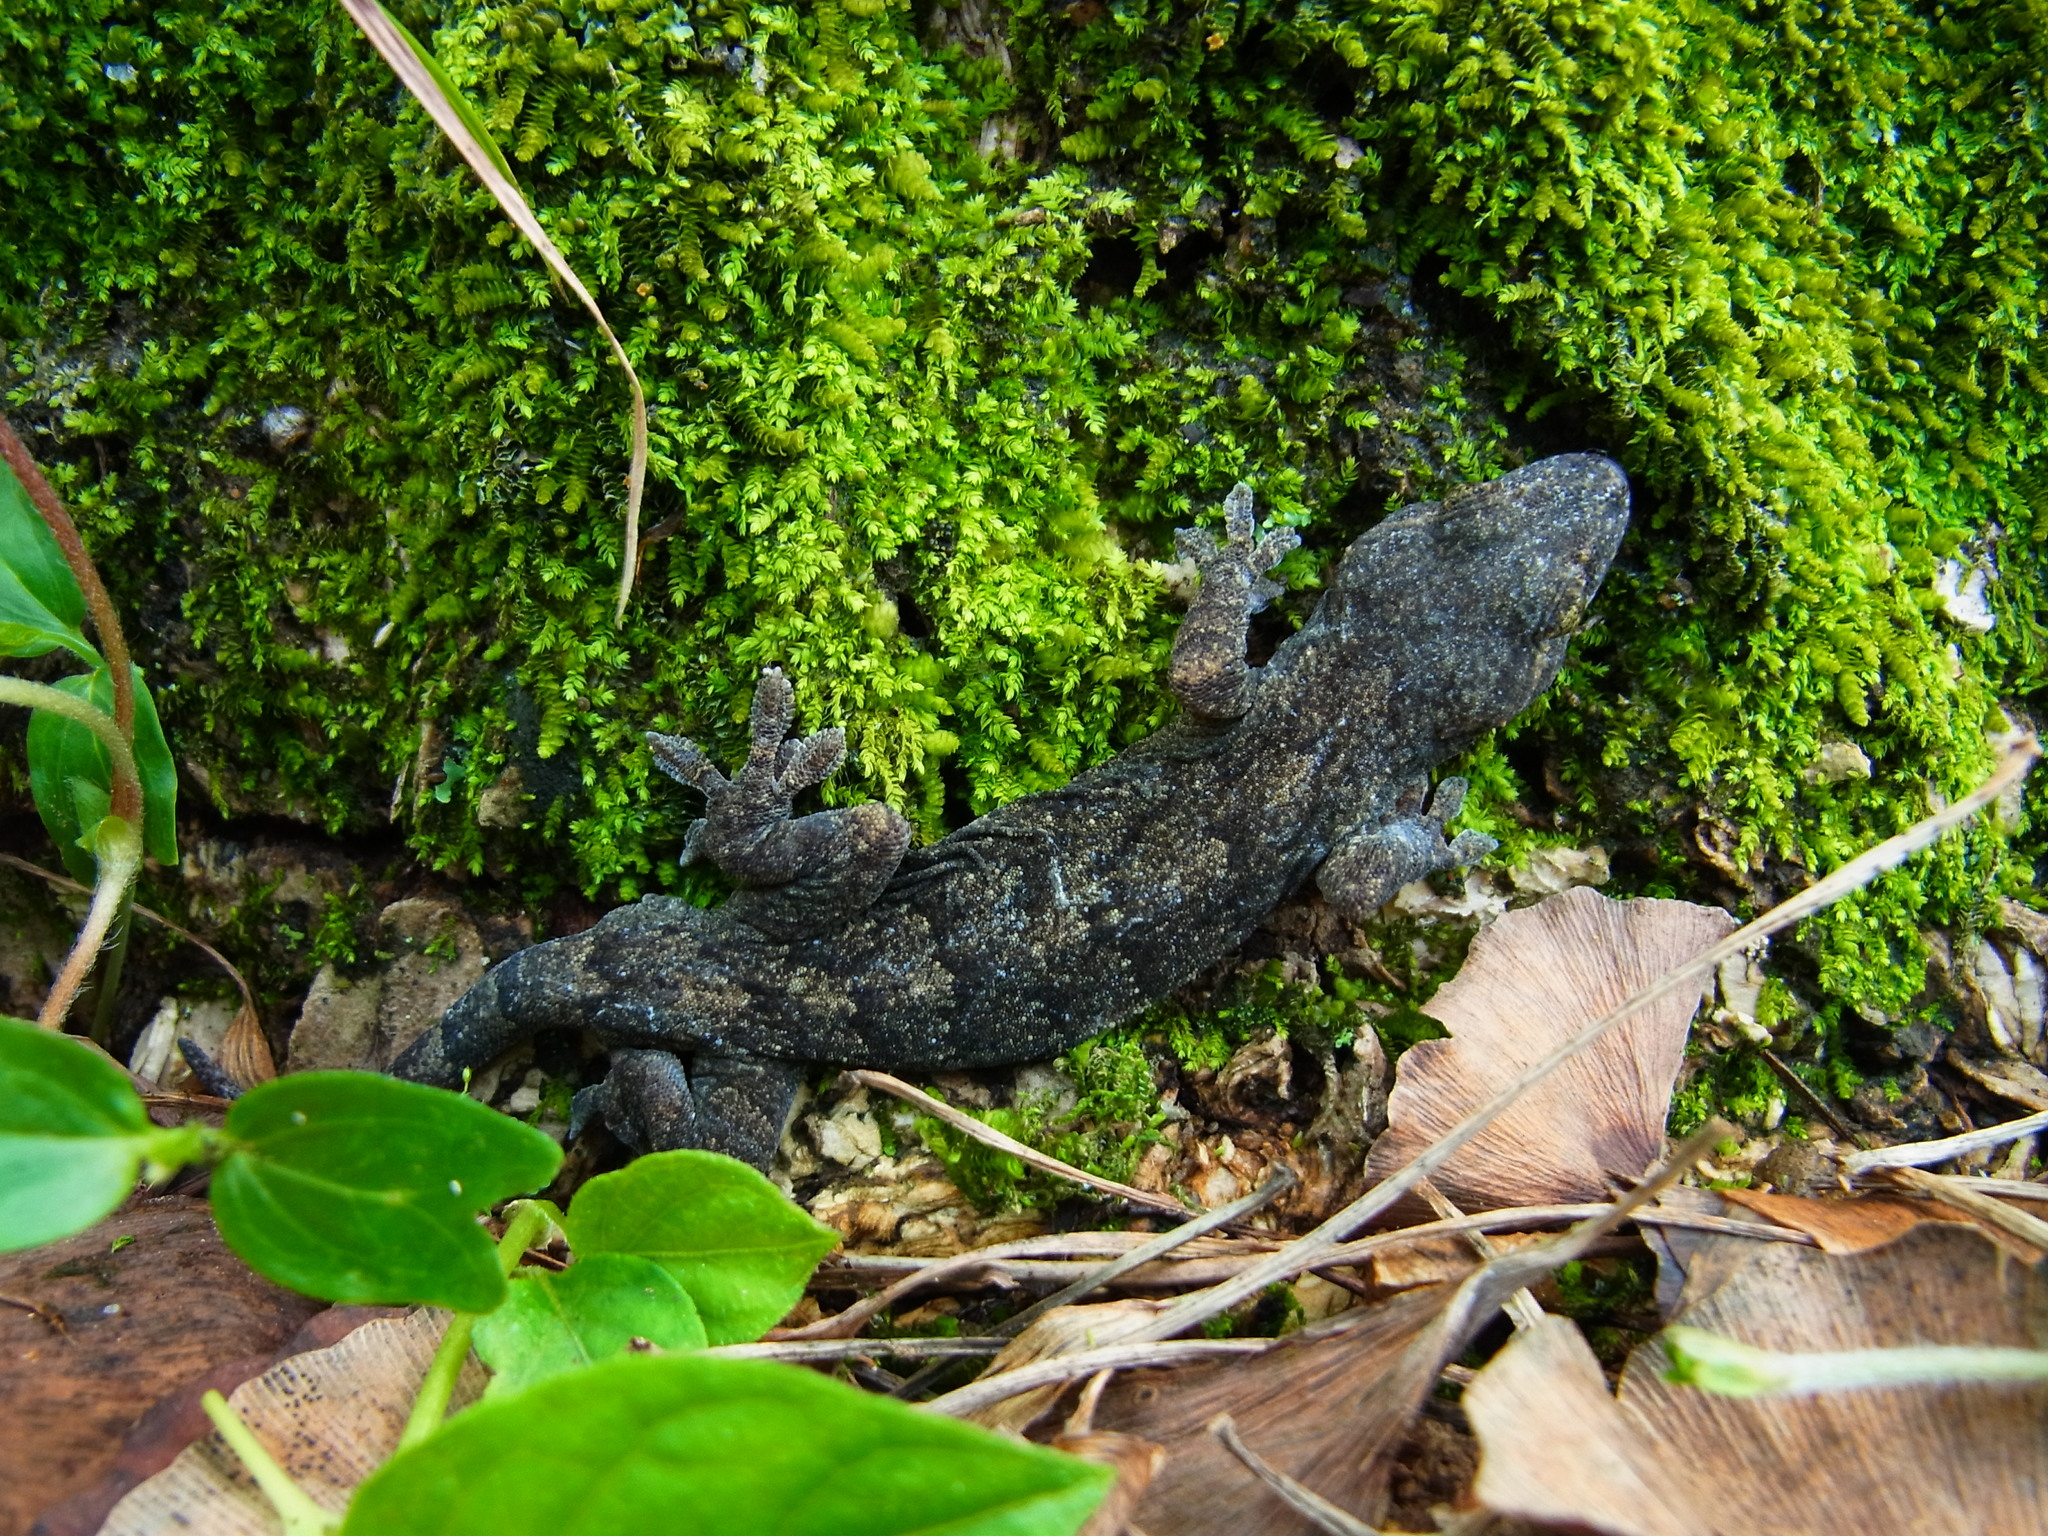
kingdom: Animalia
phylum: Chordata
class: Squamata
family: Gekkonidae
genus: Gekko
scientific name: Gekko japonicus
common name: Schlegel's japanese gecko
